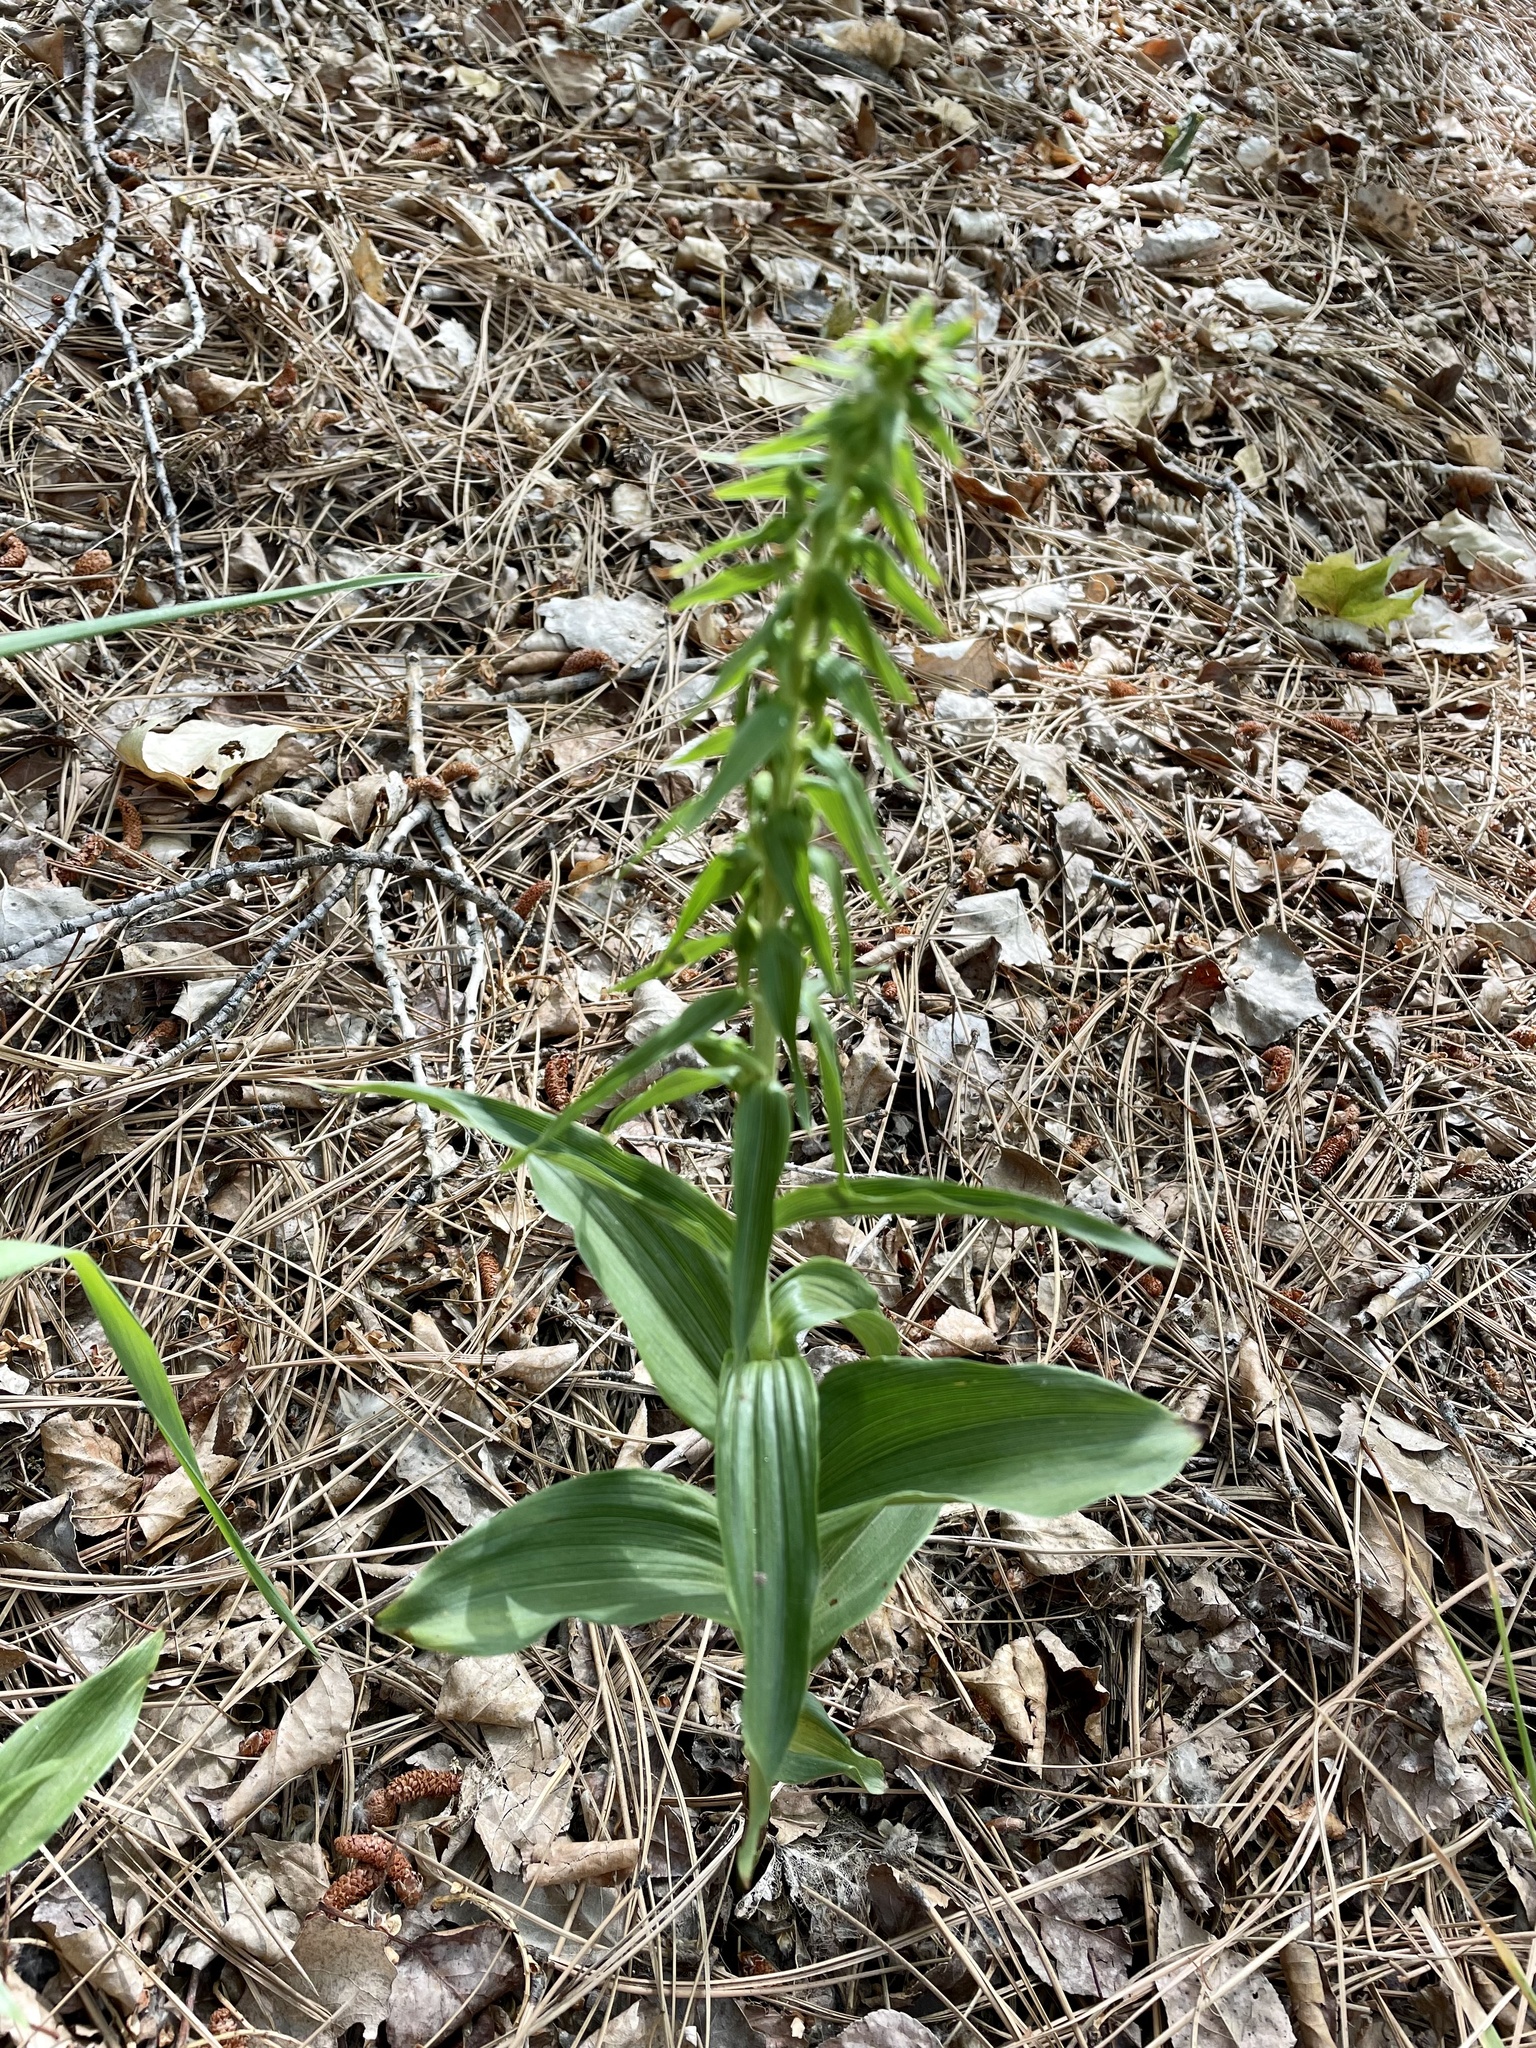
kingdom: Plantae
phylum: Tracheophyta
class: Liliopsida
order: Asparagales
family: Orchidaceae
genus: Epipactis
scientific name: Epipactis helleborine
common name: Broad-leaved helleborine
